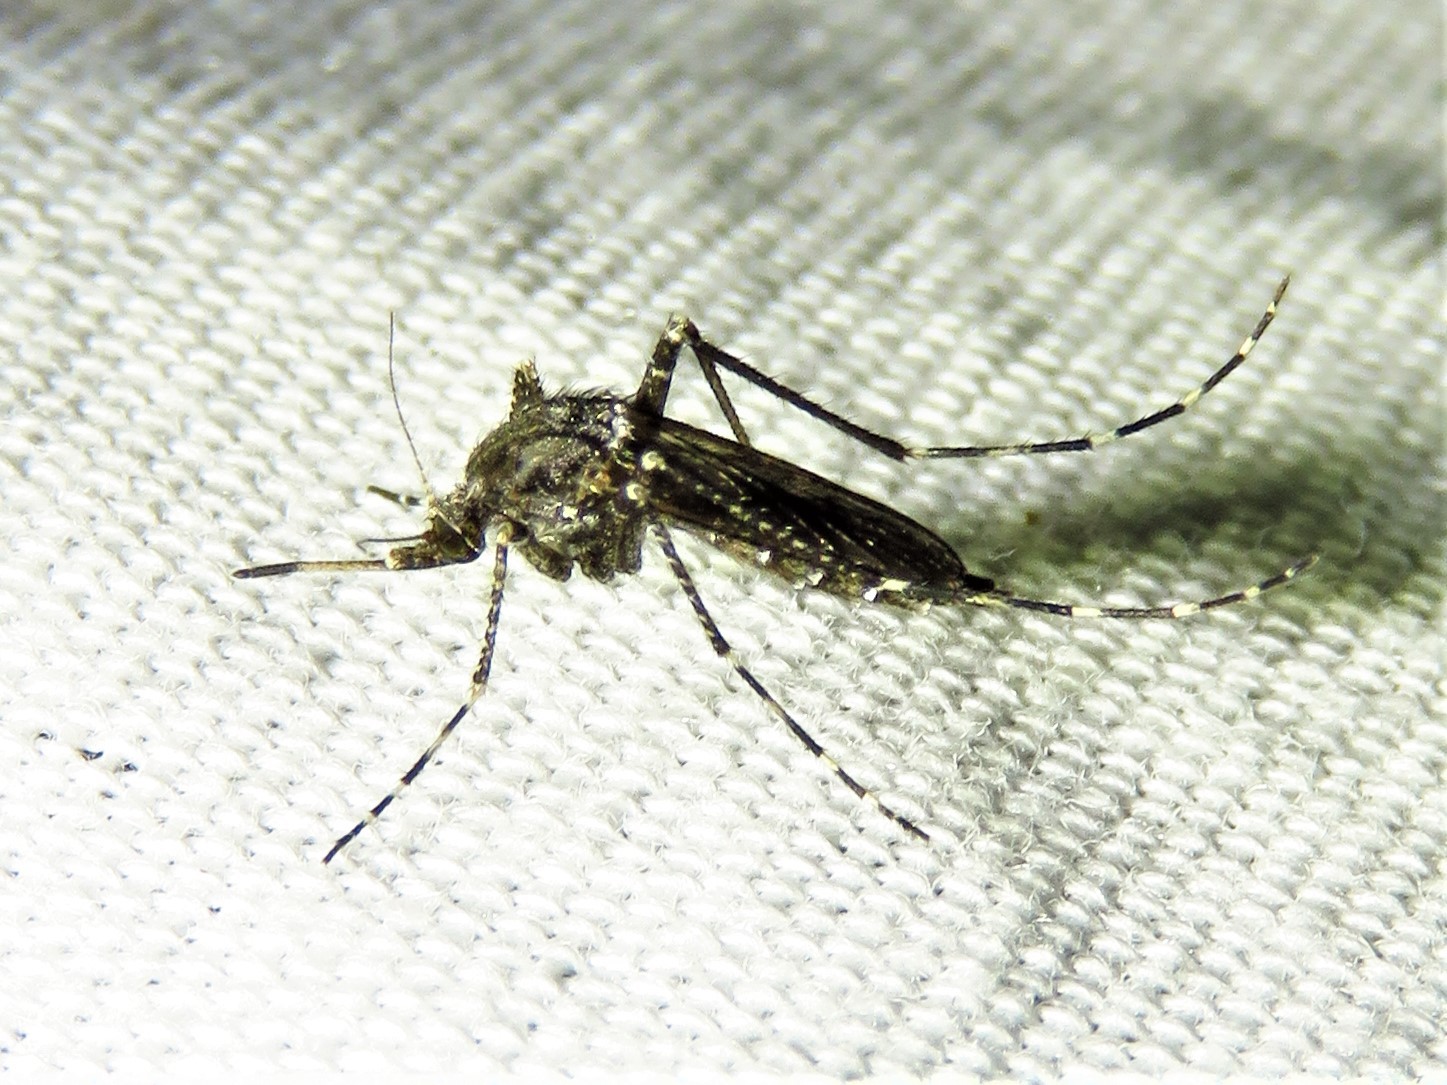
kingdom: Animalia
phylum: Arthropoda
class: Insecta
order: Diptera
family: Culicidae
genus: Psorophora
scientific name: Psorophora columbiae
